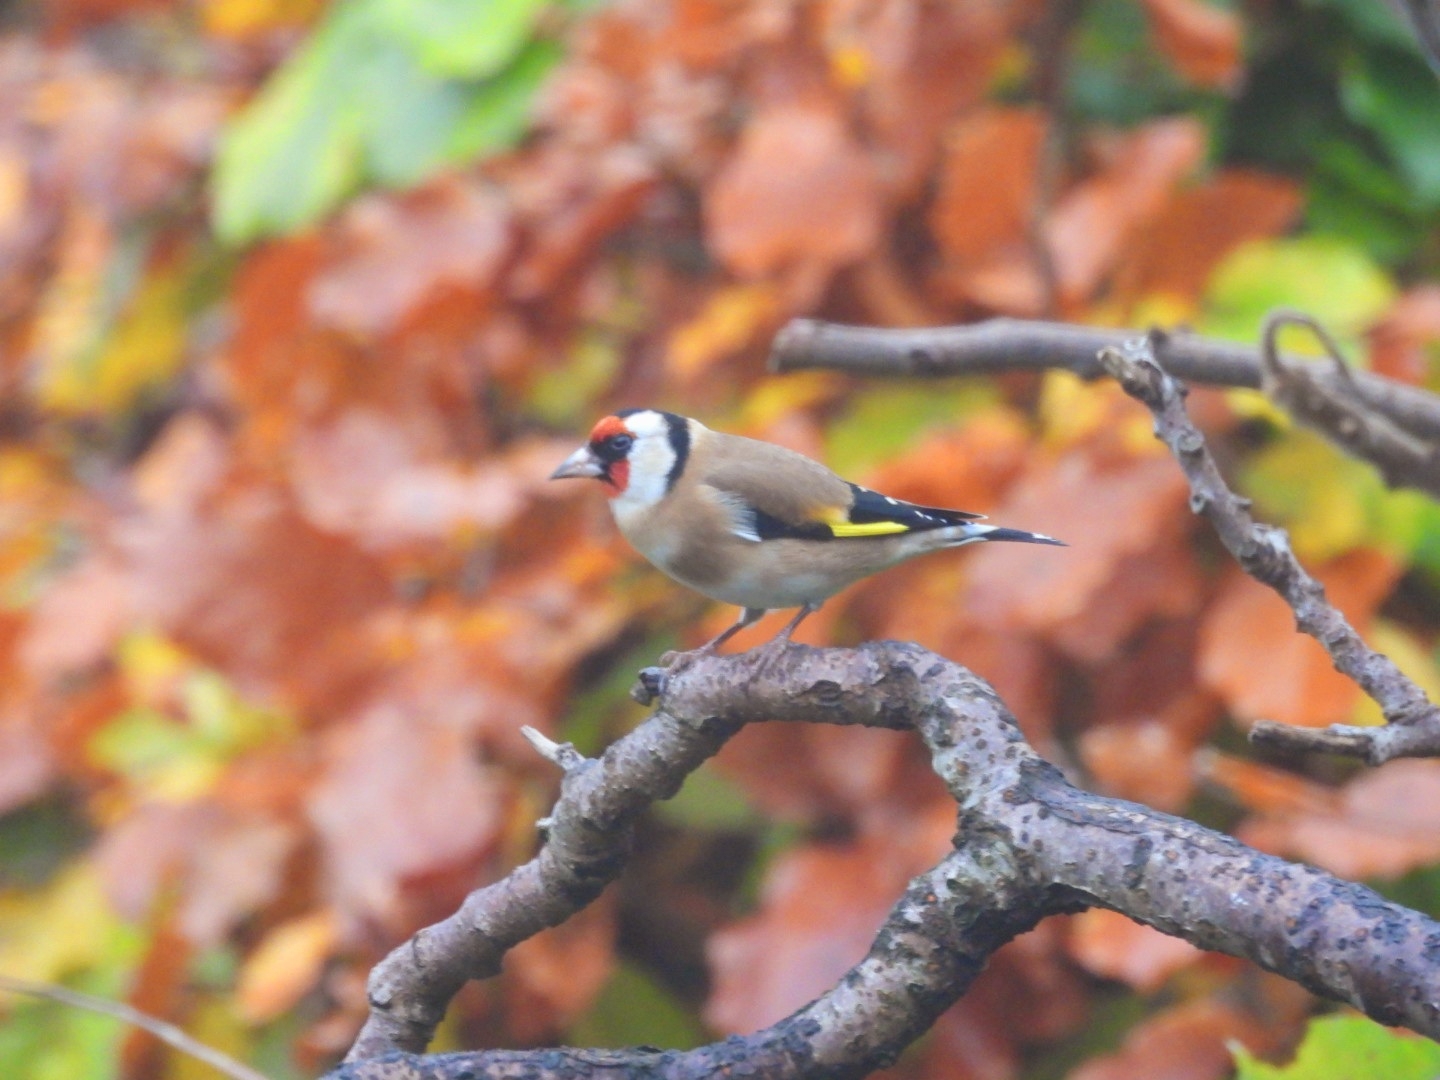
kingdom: Animalia
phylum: Chordata
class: Aves
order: Passeriformes
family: Fringillidae
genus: Carduelis
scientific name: Carduelis carduelis
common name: European goldfinch
